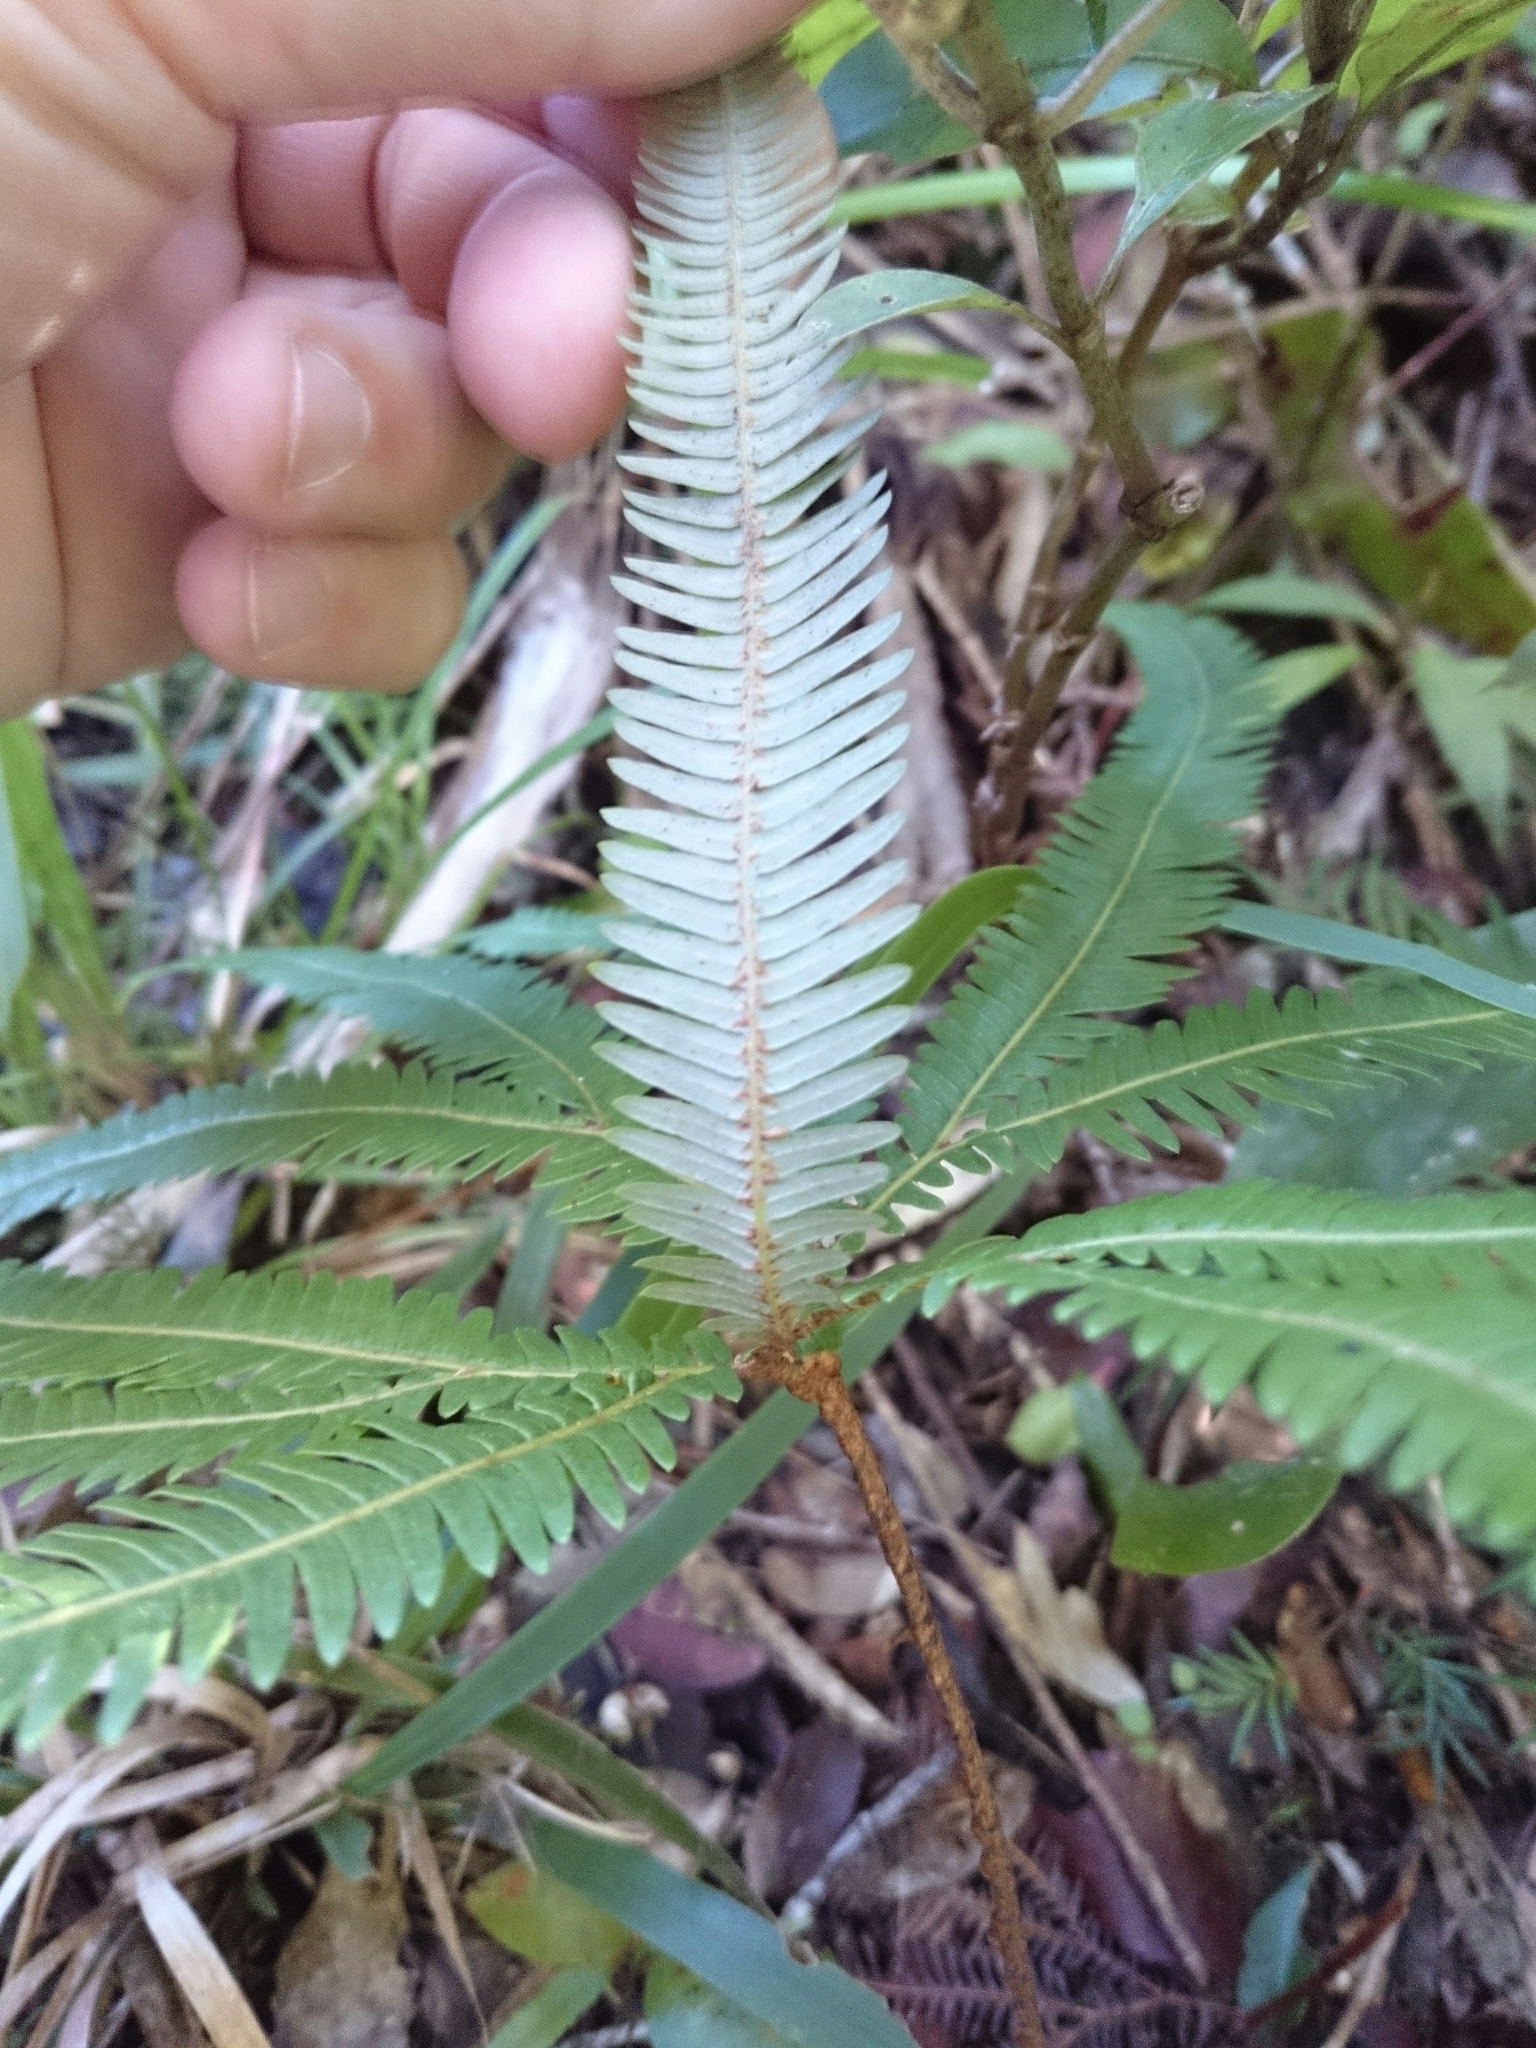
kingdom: Plantae
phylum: Tracheophyta
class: Polypodiopsida
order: Gleicheniales
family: Gleicheniaceae
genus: Sticherus
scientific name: Sticherus cunninghamii
